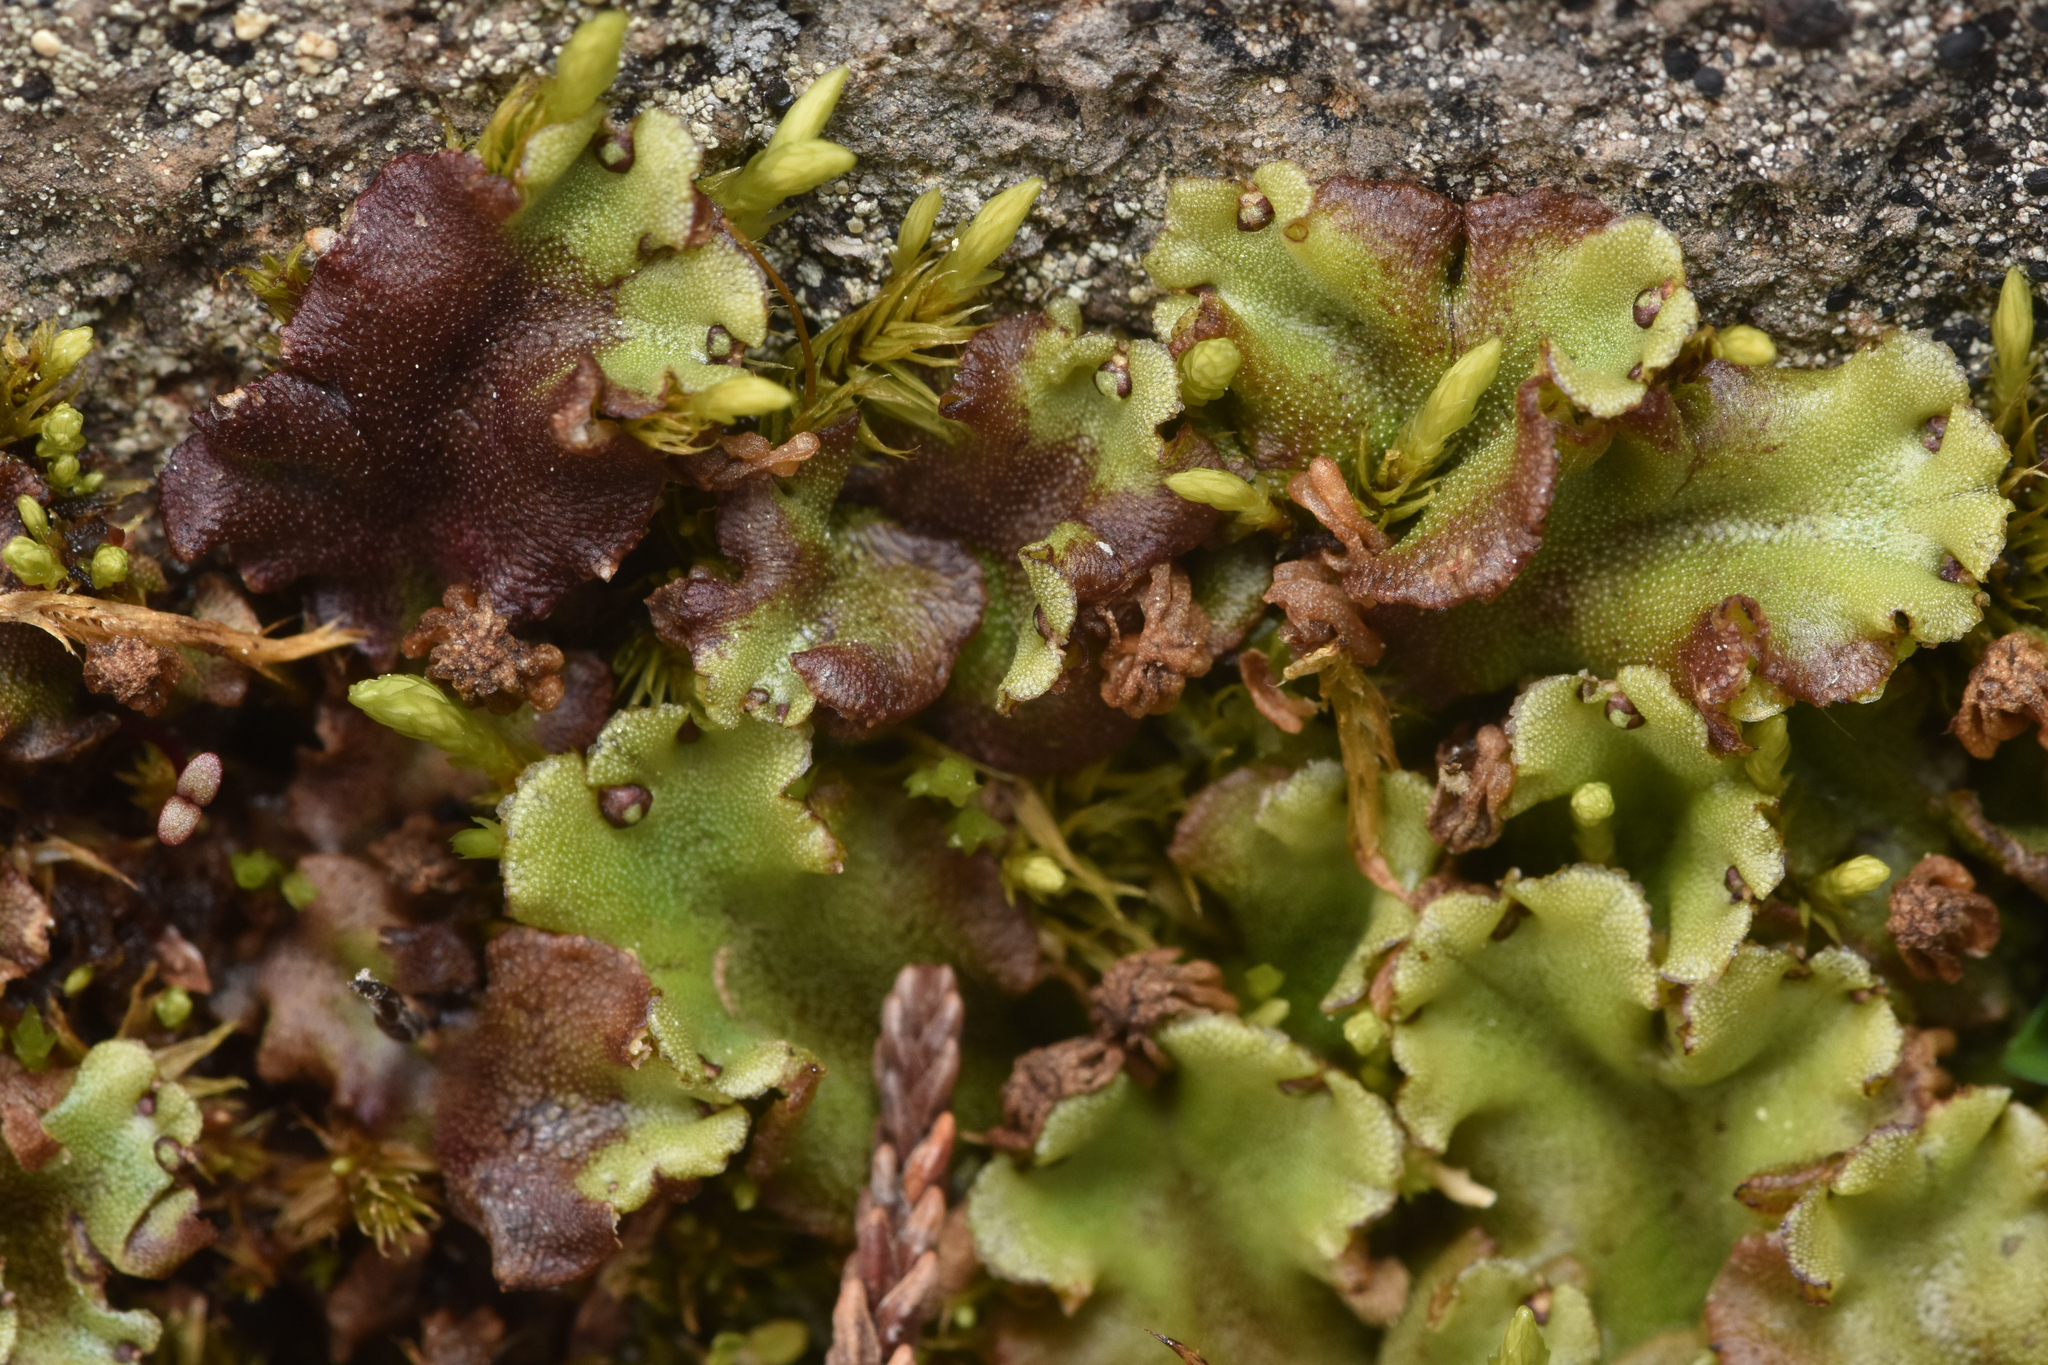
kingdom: Plantae
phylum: Marchantiophyta
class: Marchantiopsida
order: Marchantiales
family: Marchantiaceae
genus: Marchantia
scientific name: Marchantia polymorpha
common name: Common liverwort
